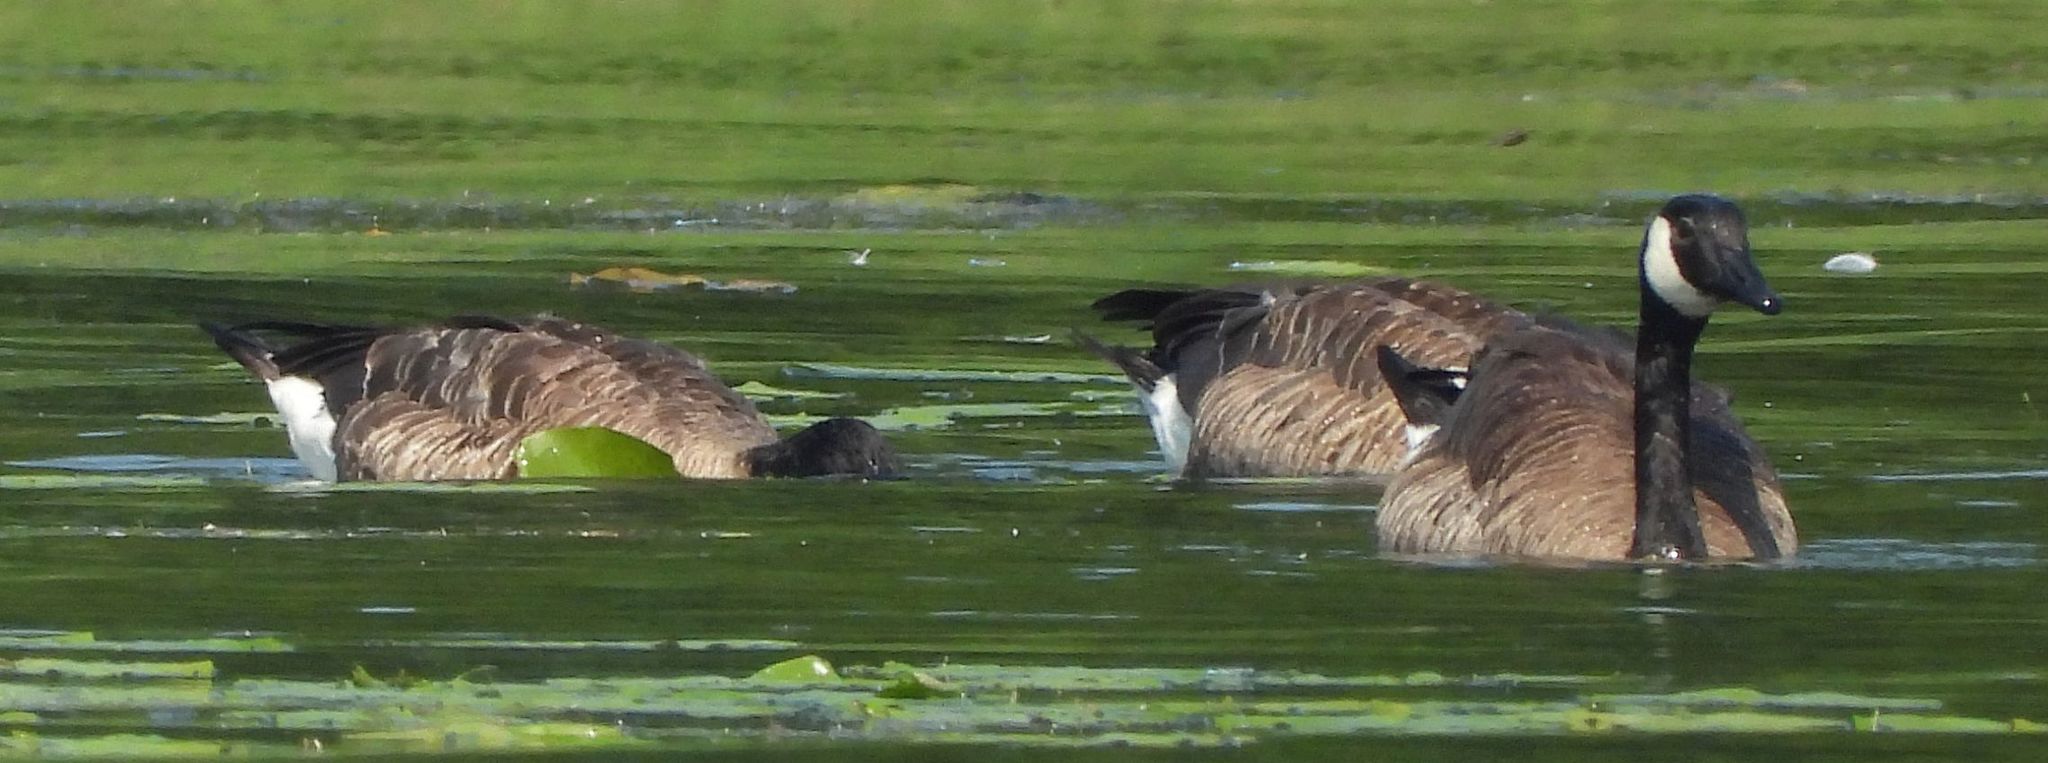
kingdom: Animalia
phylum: Chordata
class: Aves
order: Anseriformes
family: Anatidae
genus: Branta
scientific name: Branta canadensis
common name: Canada goose
